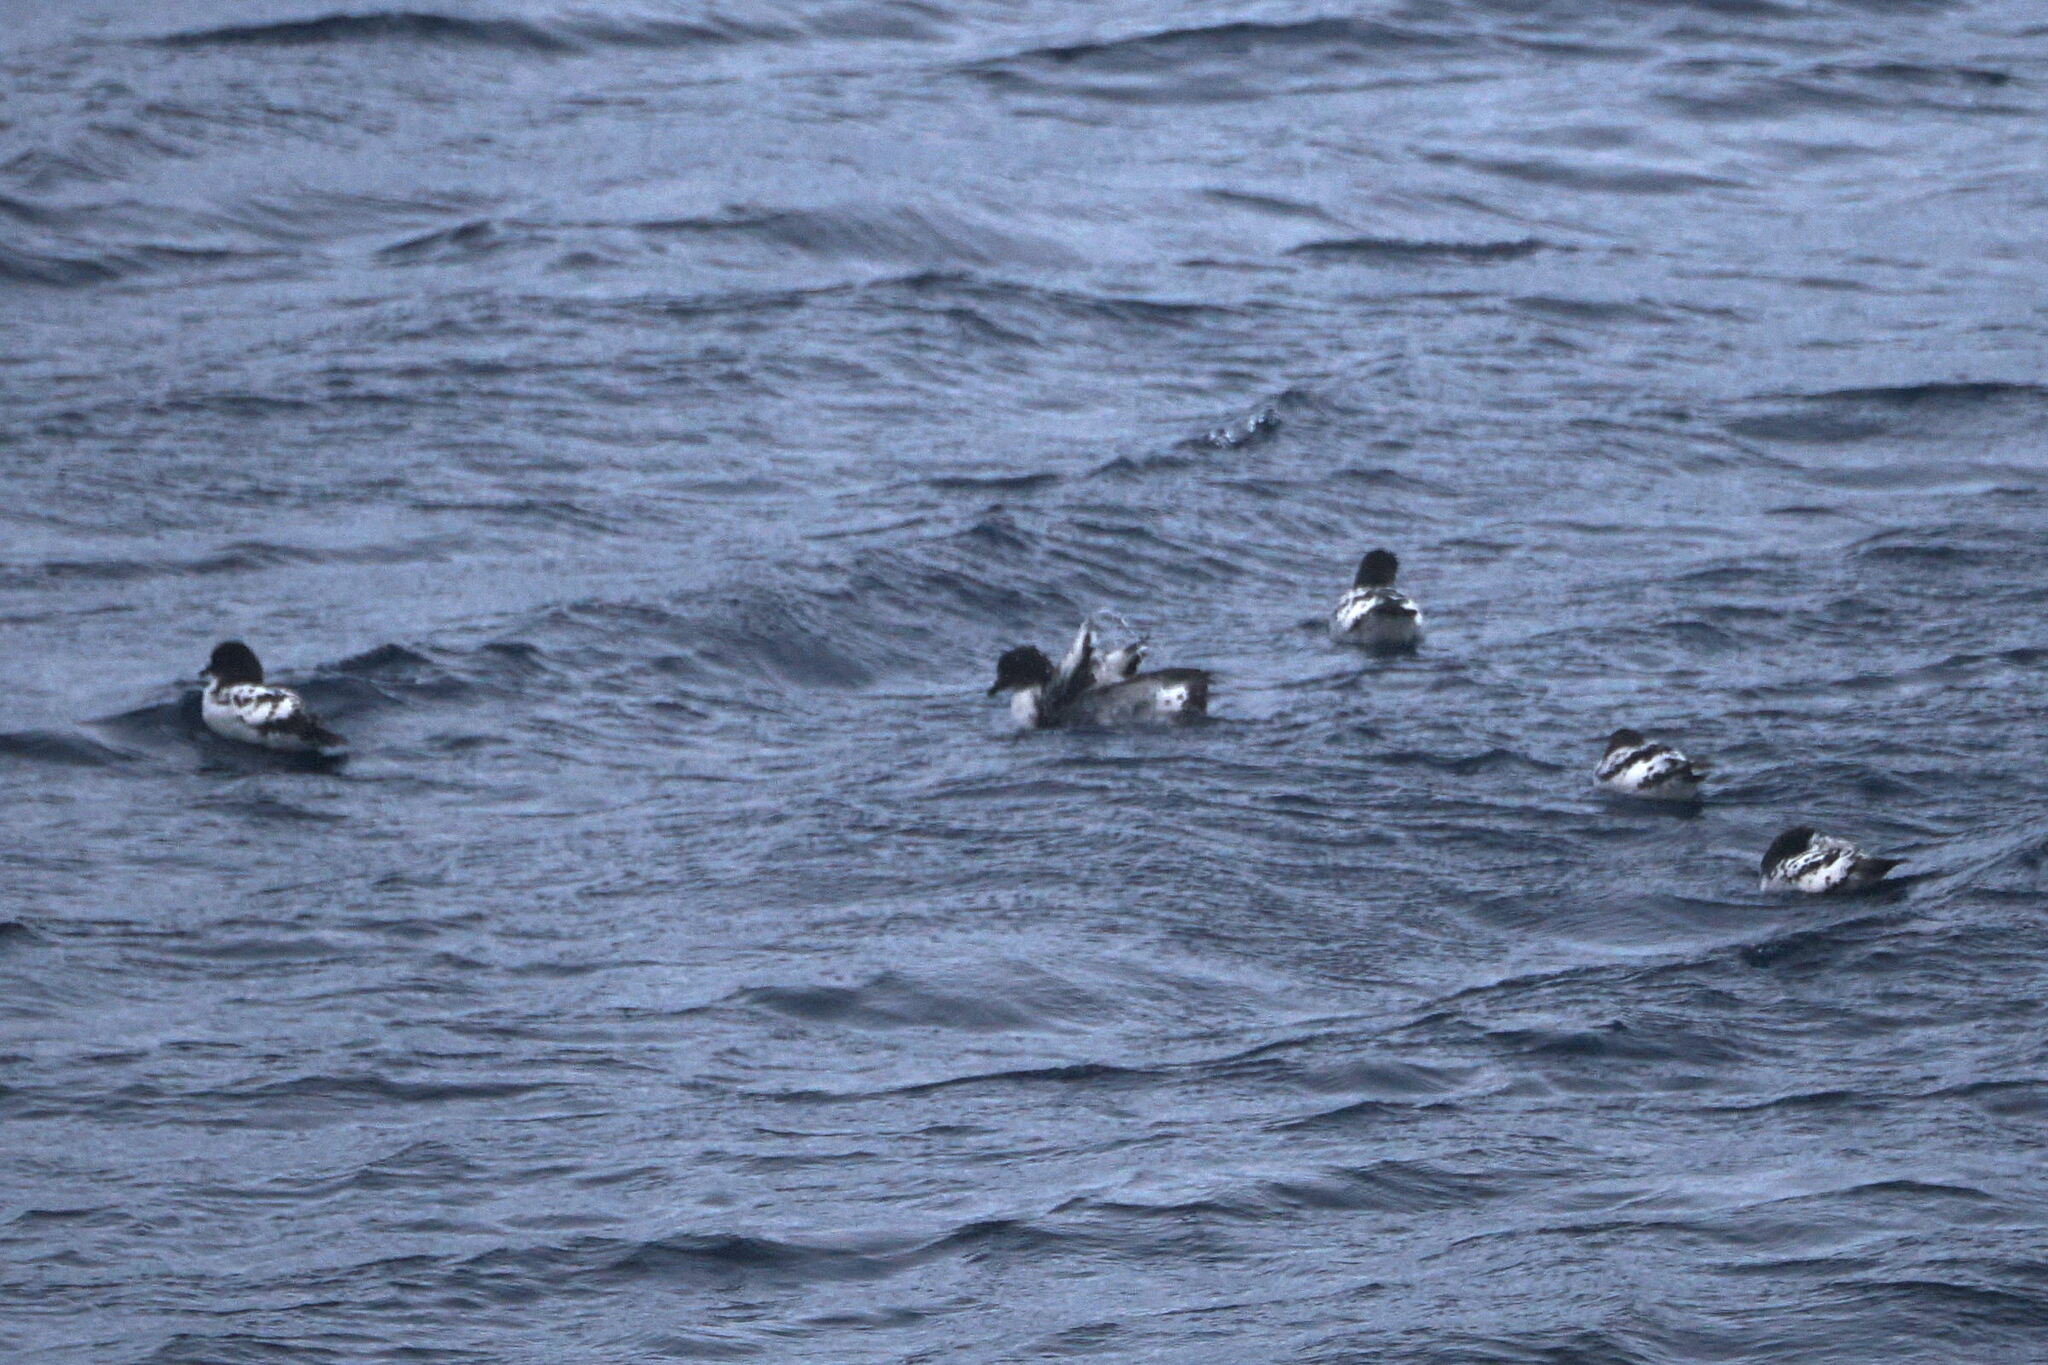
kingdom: Animalia
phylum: Chordata
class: Aves
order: Procellariiformes
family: Procellariidae
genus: Daption
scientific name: Daption capense
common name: Cape petrel
